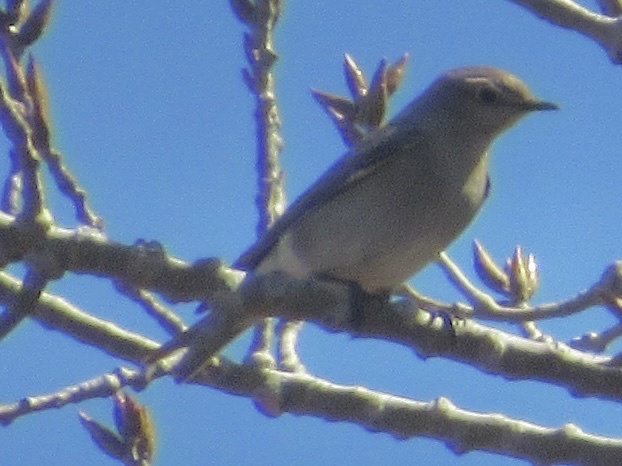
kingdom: Animalia
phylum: Chordata
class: Aves
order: Passeriformes
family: Turdidae
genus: Sialia
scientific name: Sialia currucoides
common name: Mountain bluebird
